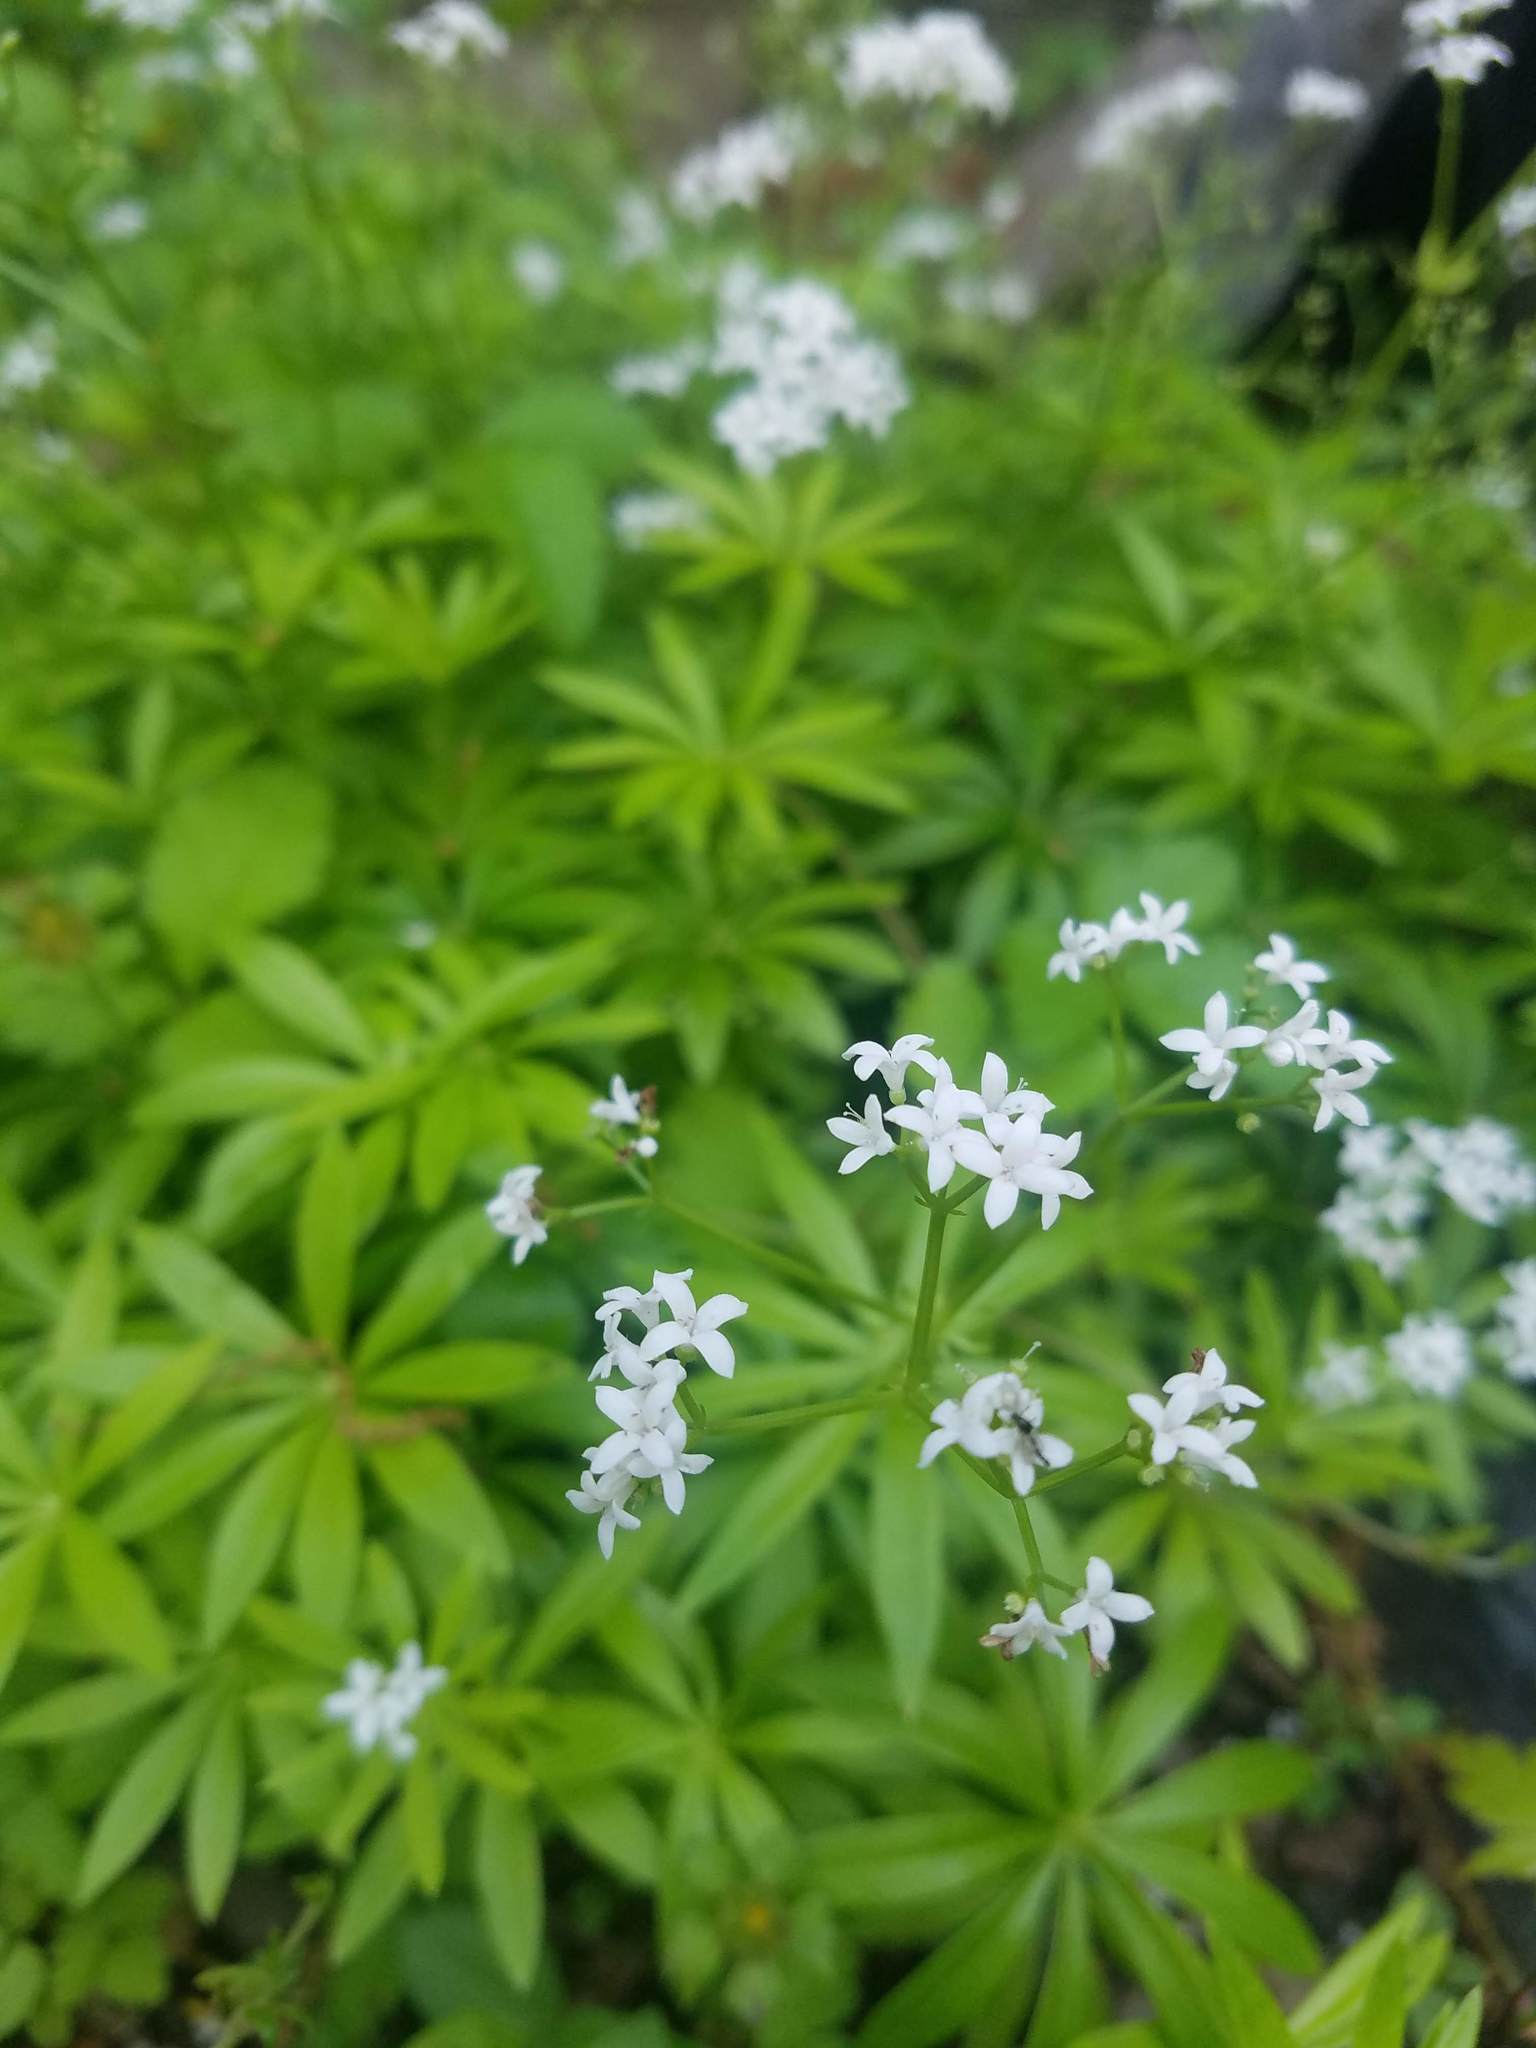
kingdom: Plantae
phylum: Tracheophyta
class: Magnoliopsida
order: Gentianales
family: Rubiaceae
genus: Galium
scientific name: Galium odoratum
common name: Sweet woodruff
